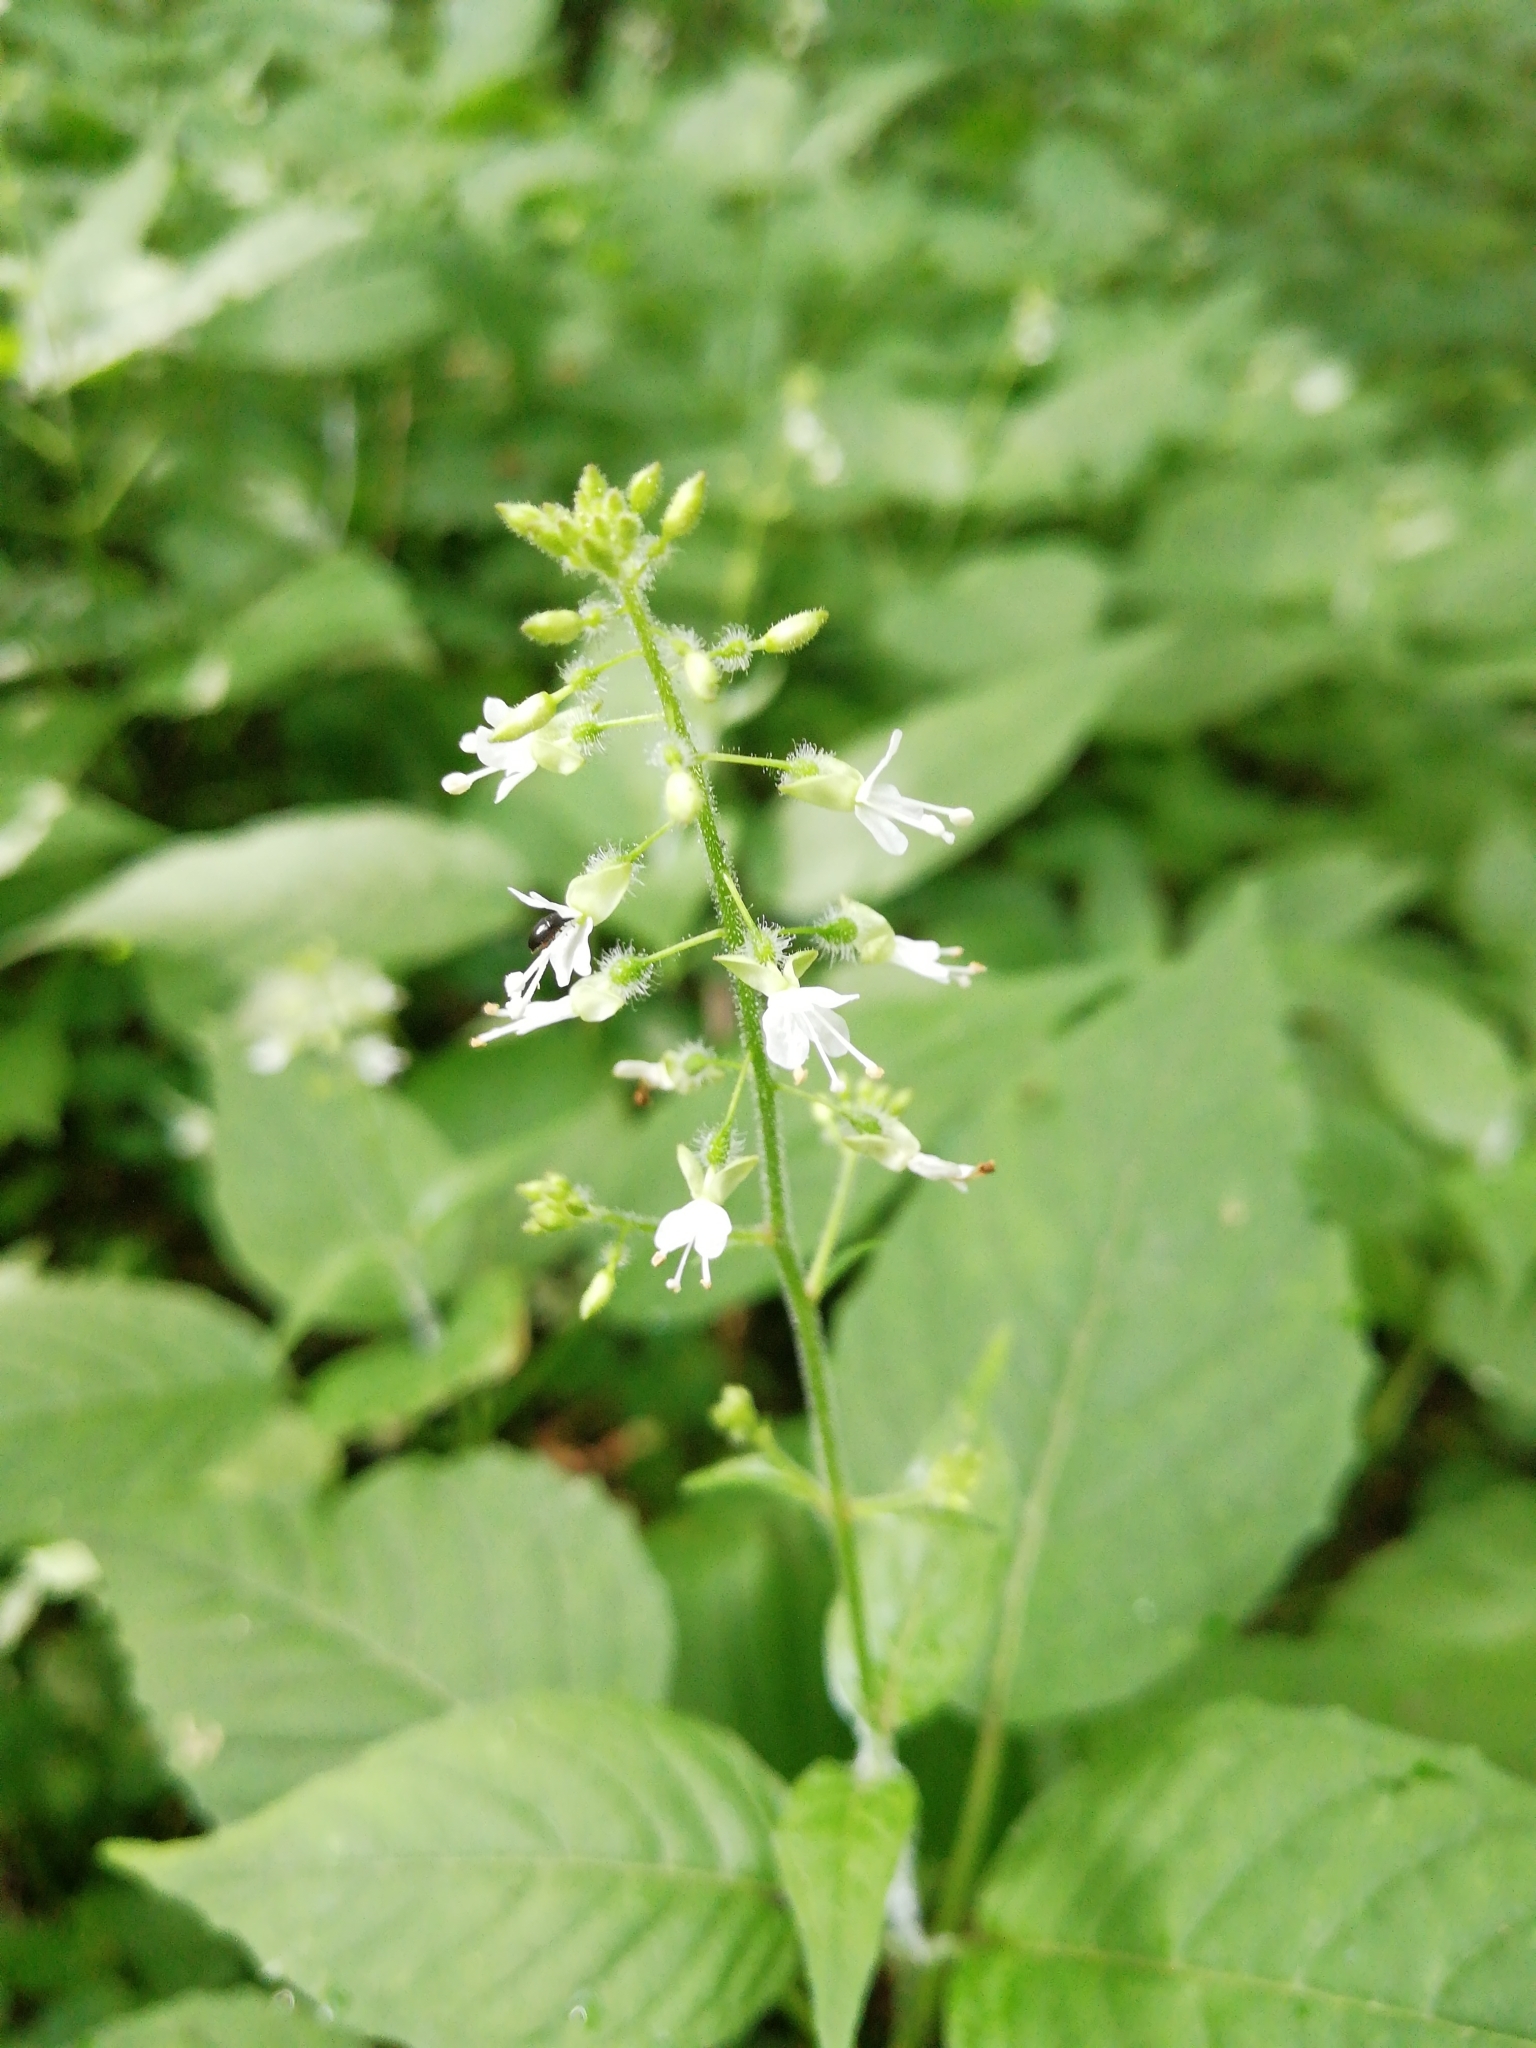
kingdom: Plantae
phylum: Tracheophyta
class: Magnoliopsida
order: Myrtales
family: Onagraceae
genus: Circaea
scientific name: Circaea lutetiana
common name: Enchanter's-nightshade
